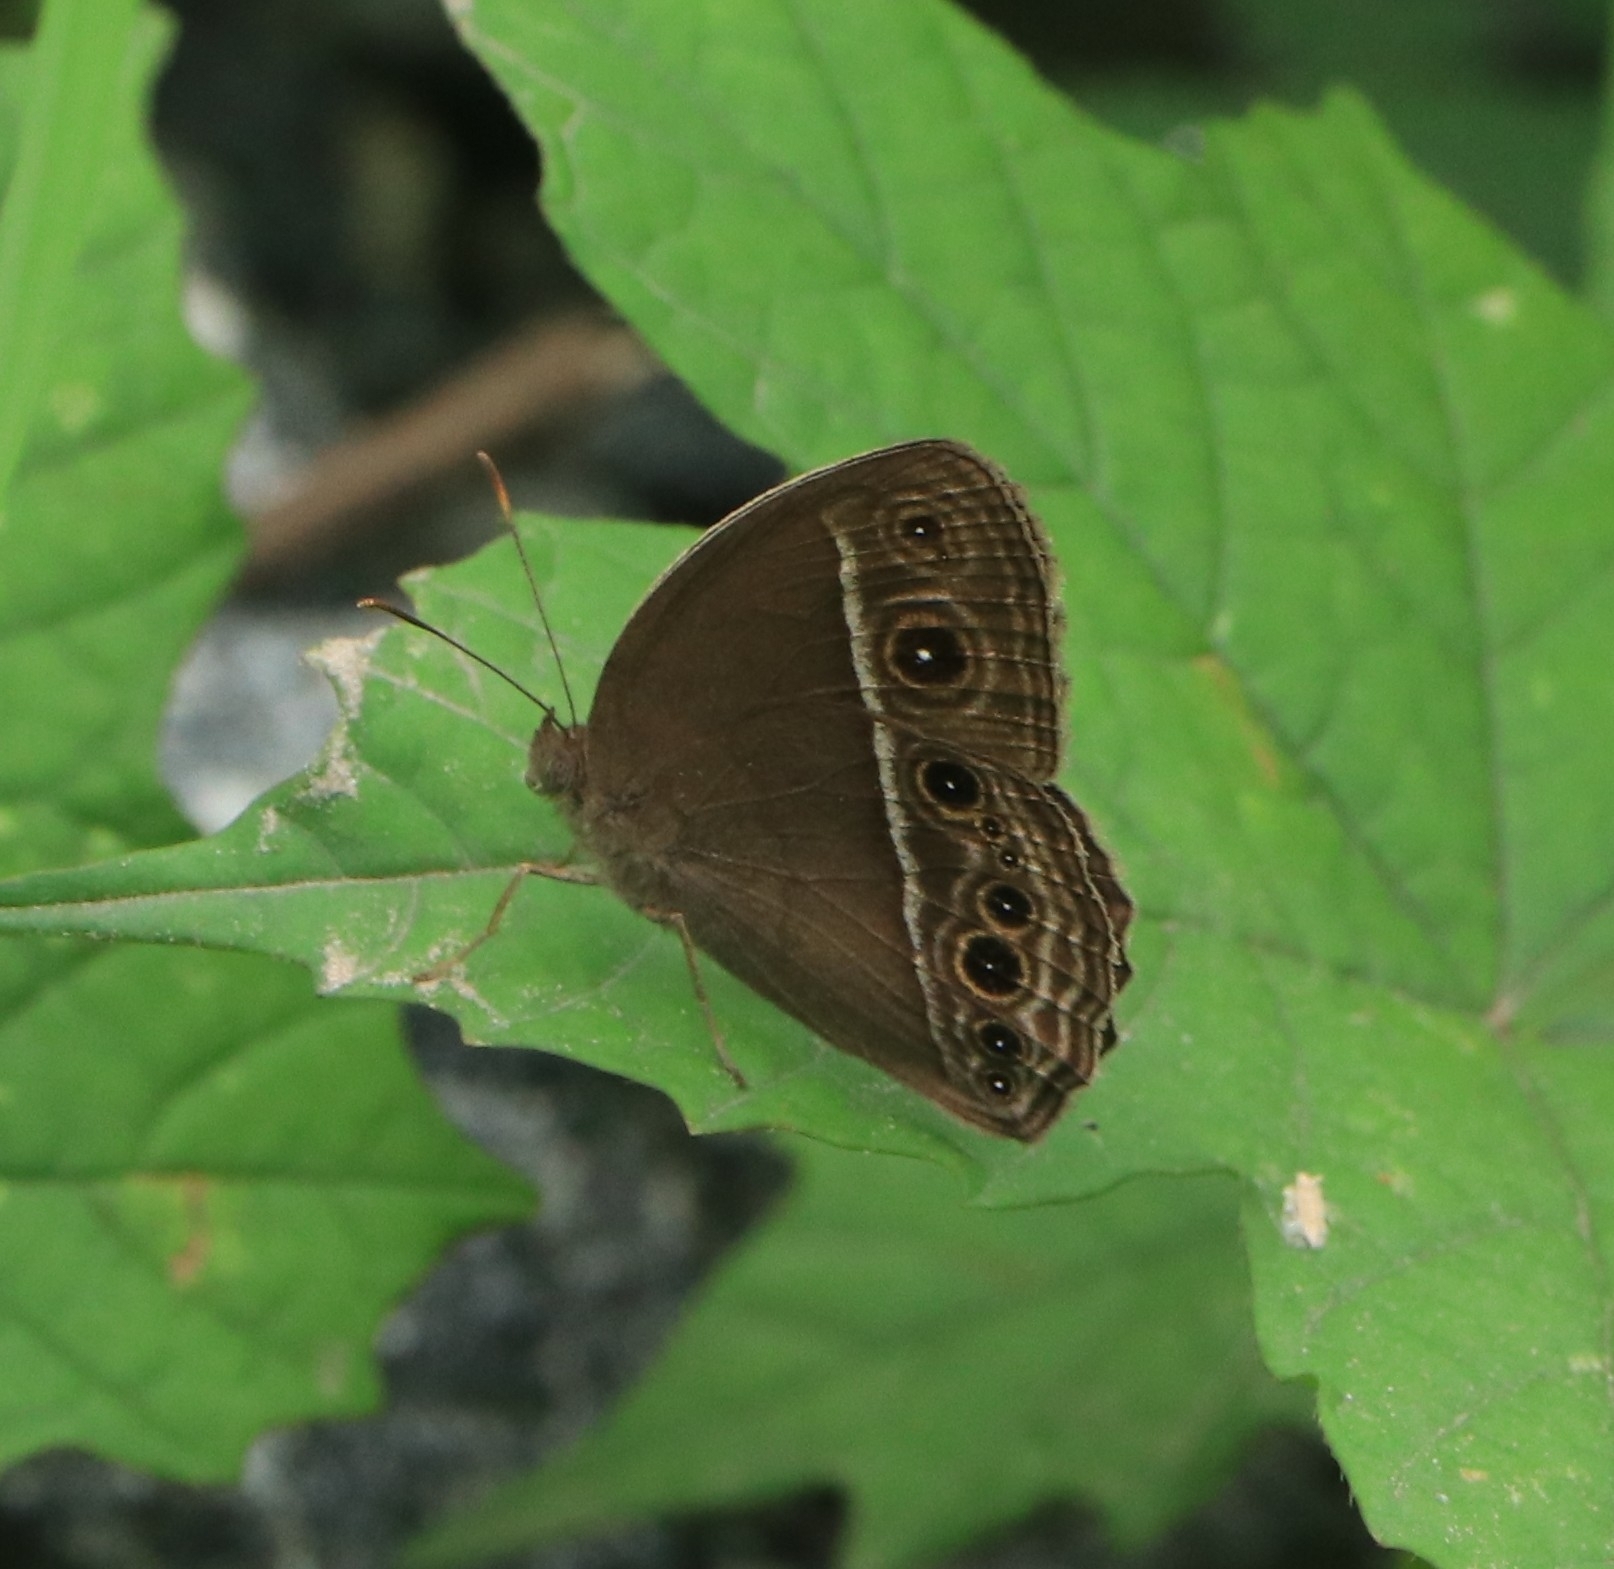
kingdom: Animalia
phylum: Arthropoda
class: Insecta
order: Lepidoptera
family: Nymphalidae
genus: Mycalesis
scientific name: Mycalesis mineus
